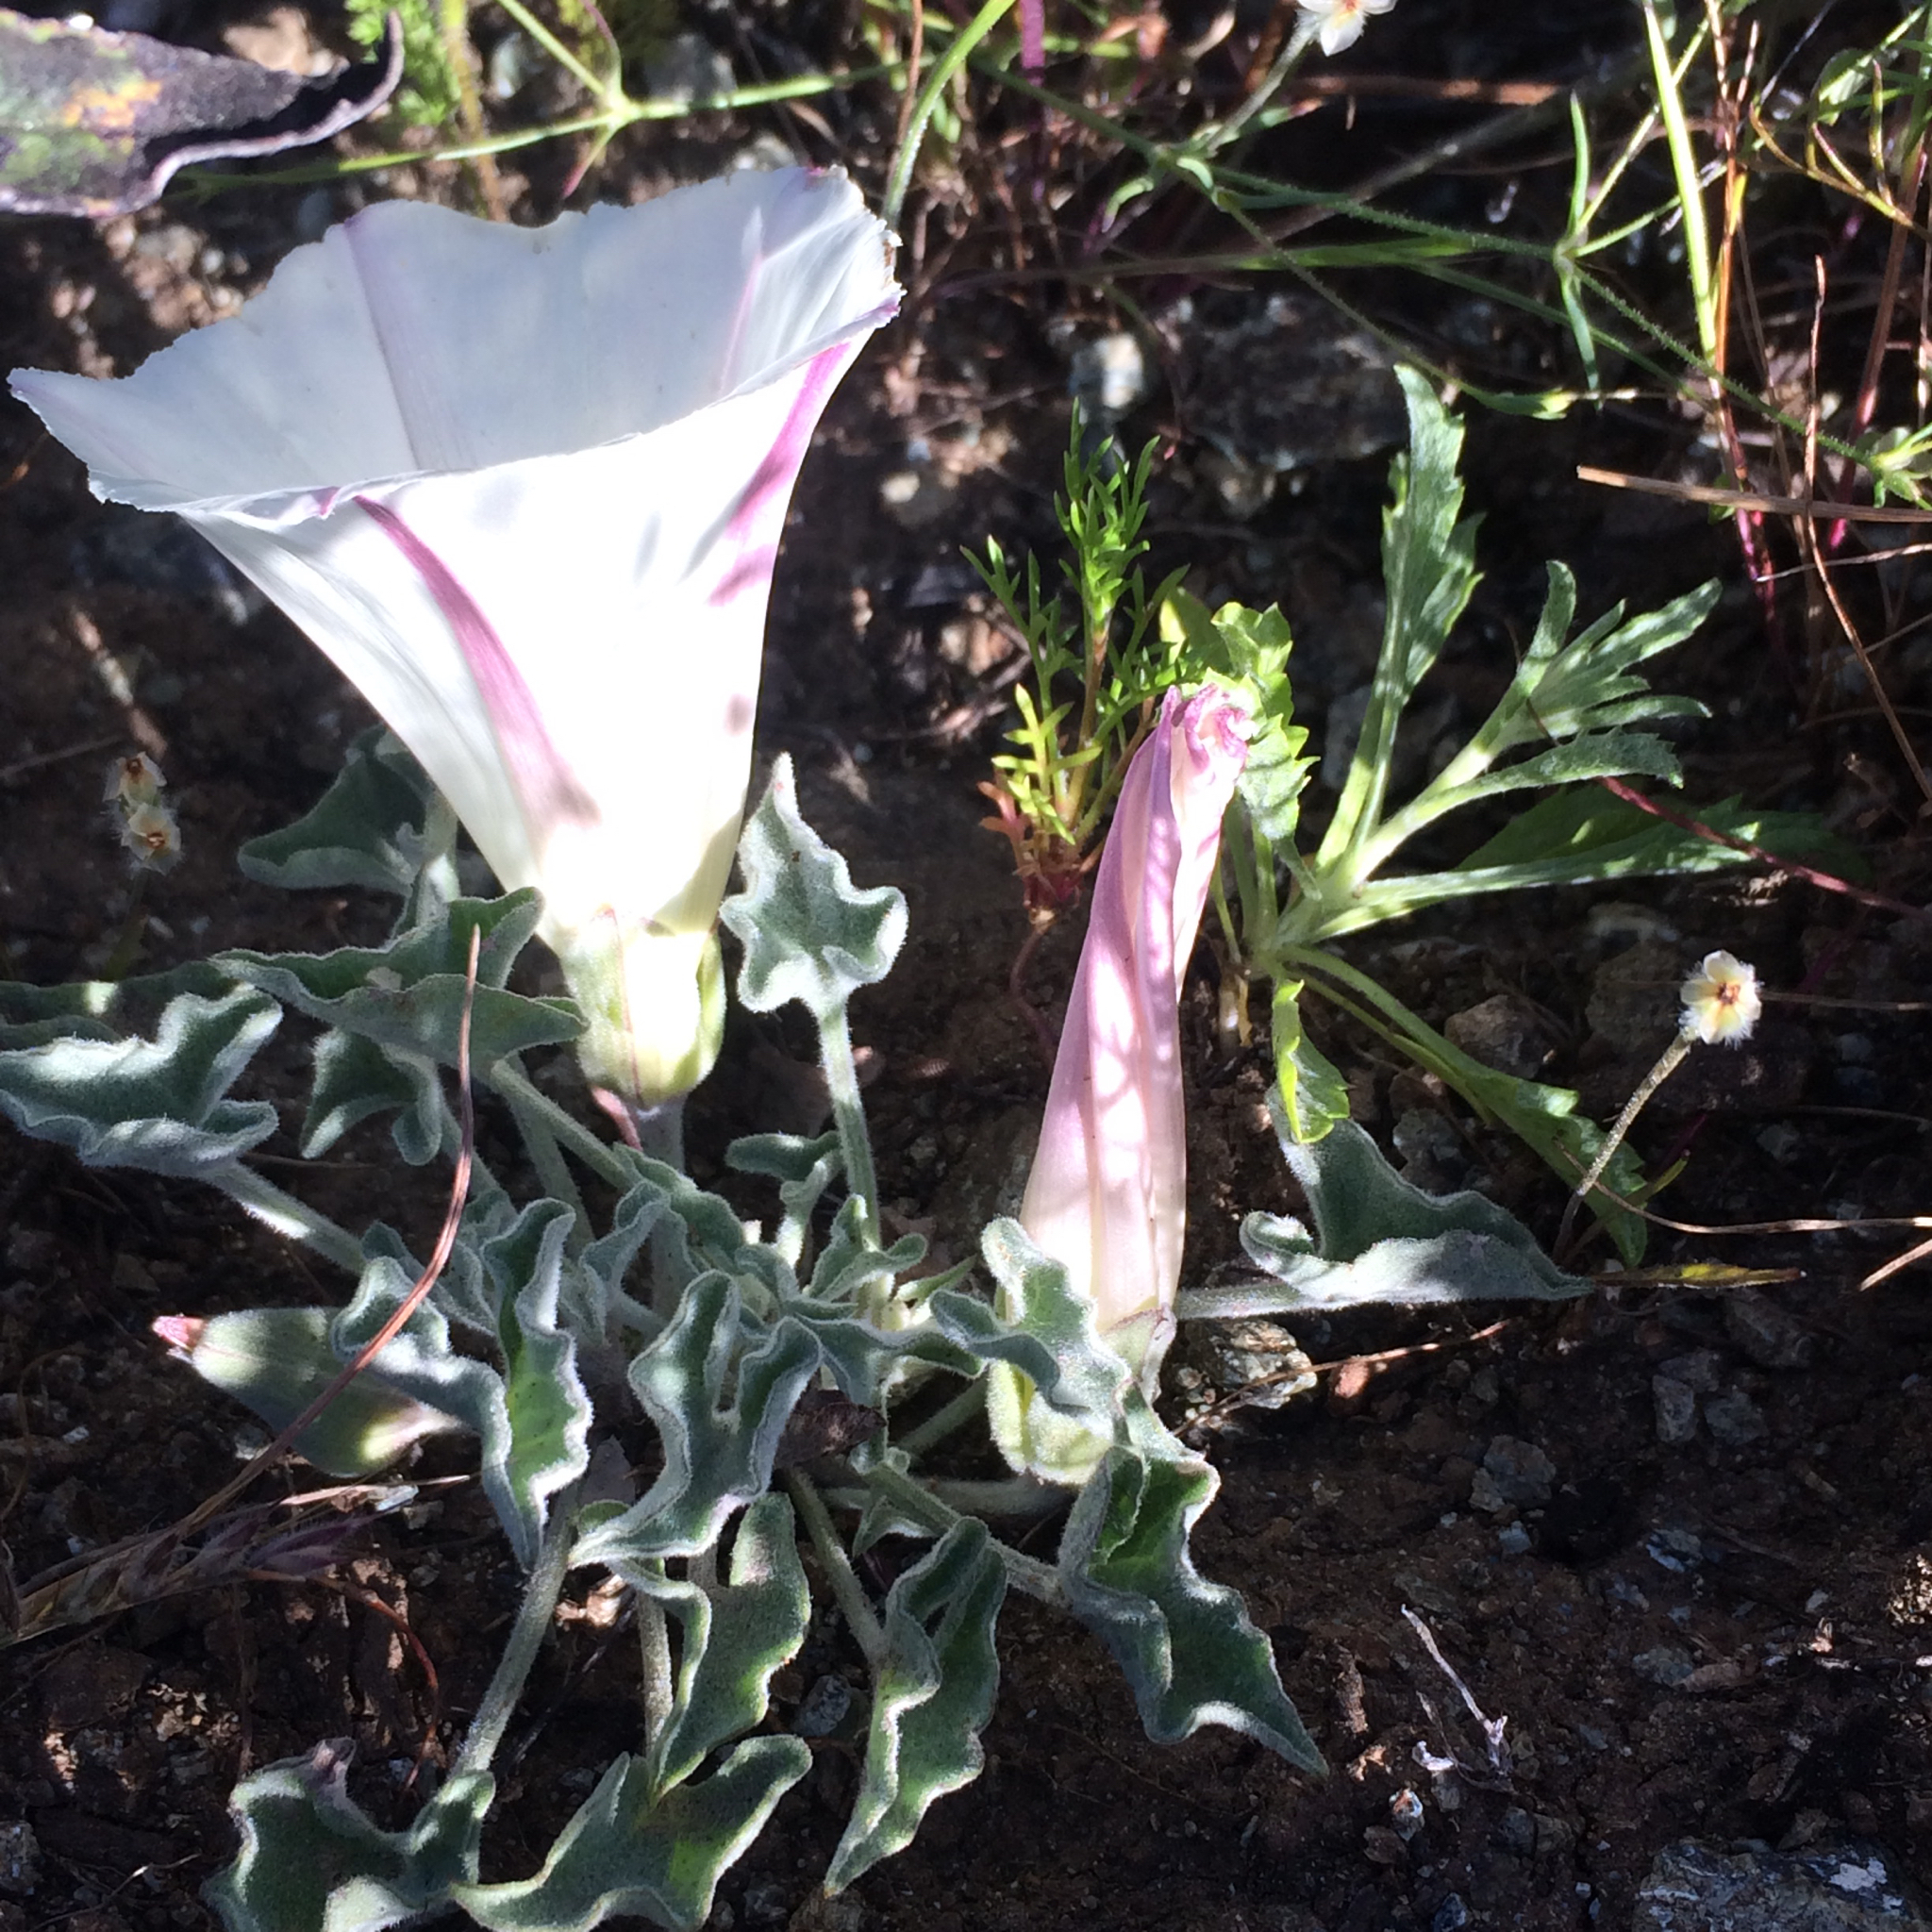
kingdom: Plantae
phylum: Tracheophyta
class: Magnoliopsida
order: Solanales
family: Convolvulaceae
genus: Calystegia
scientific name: Calystegia collina
